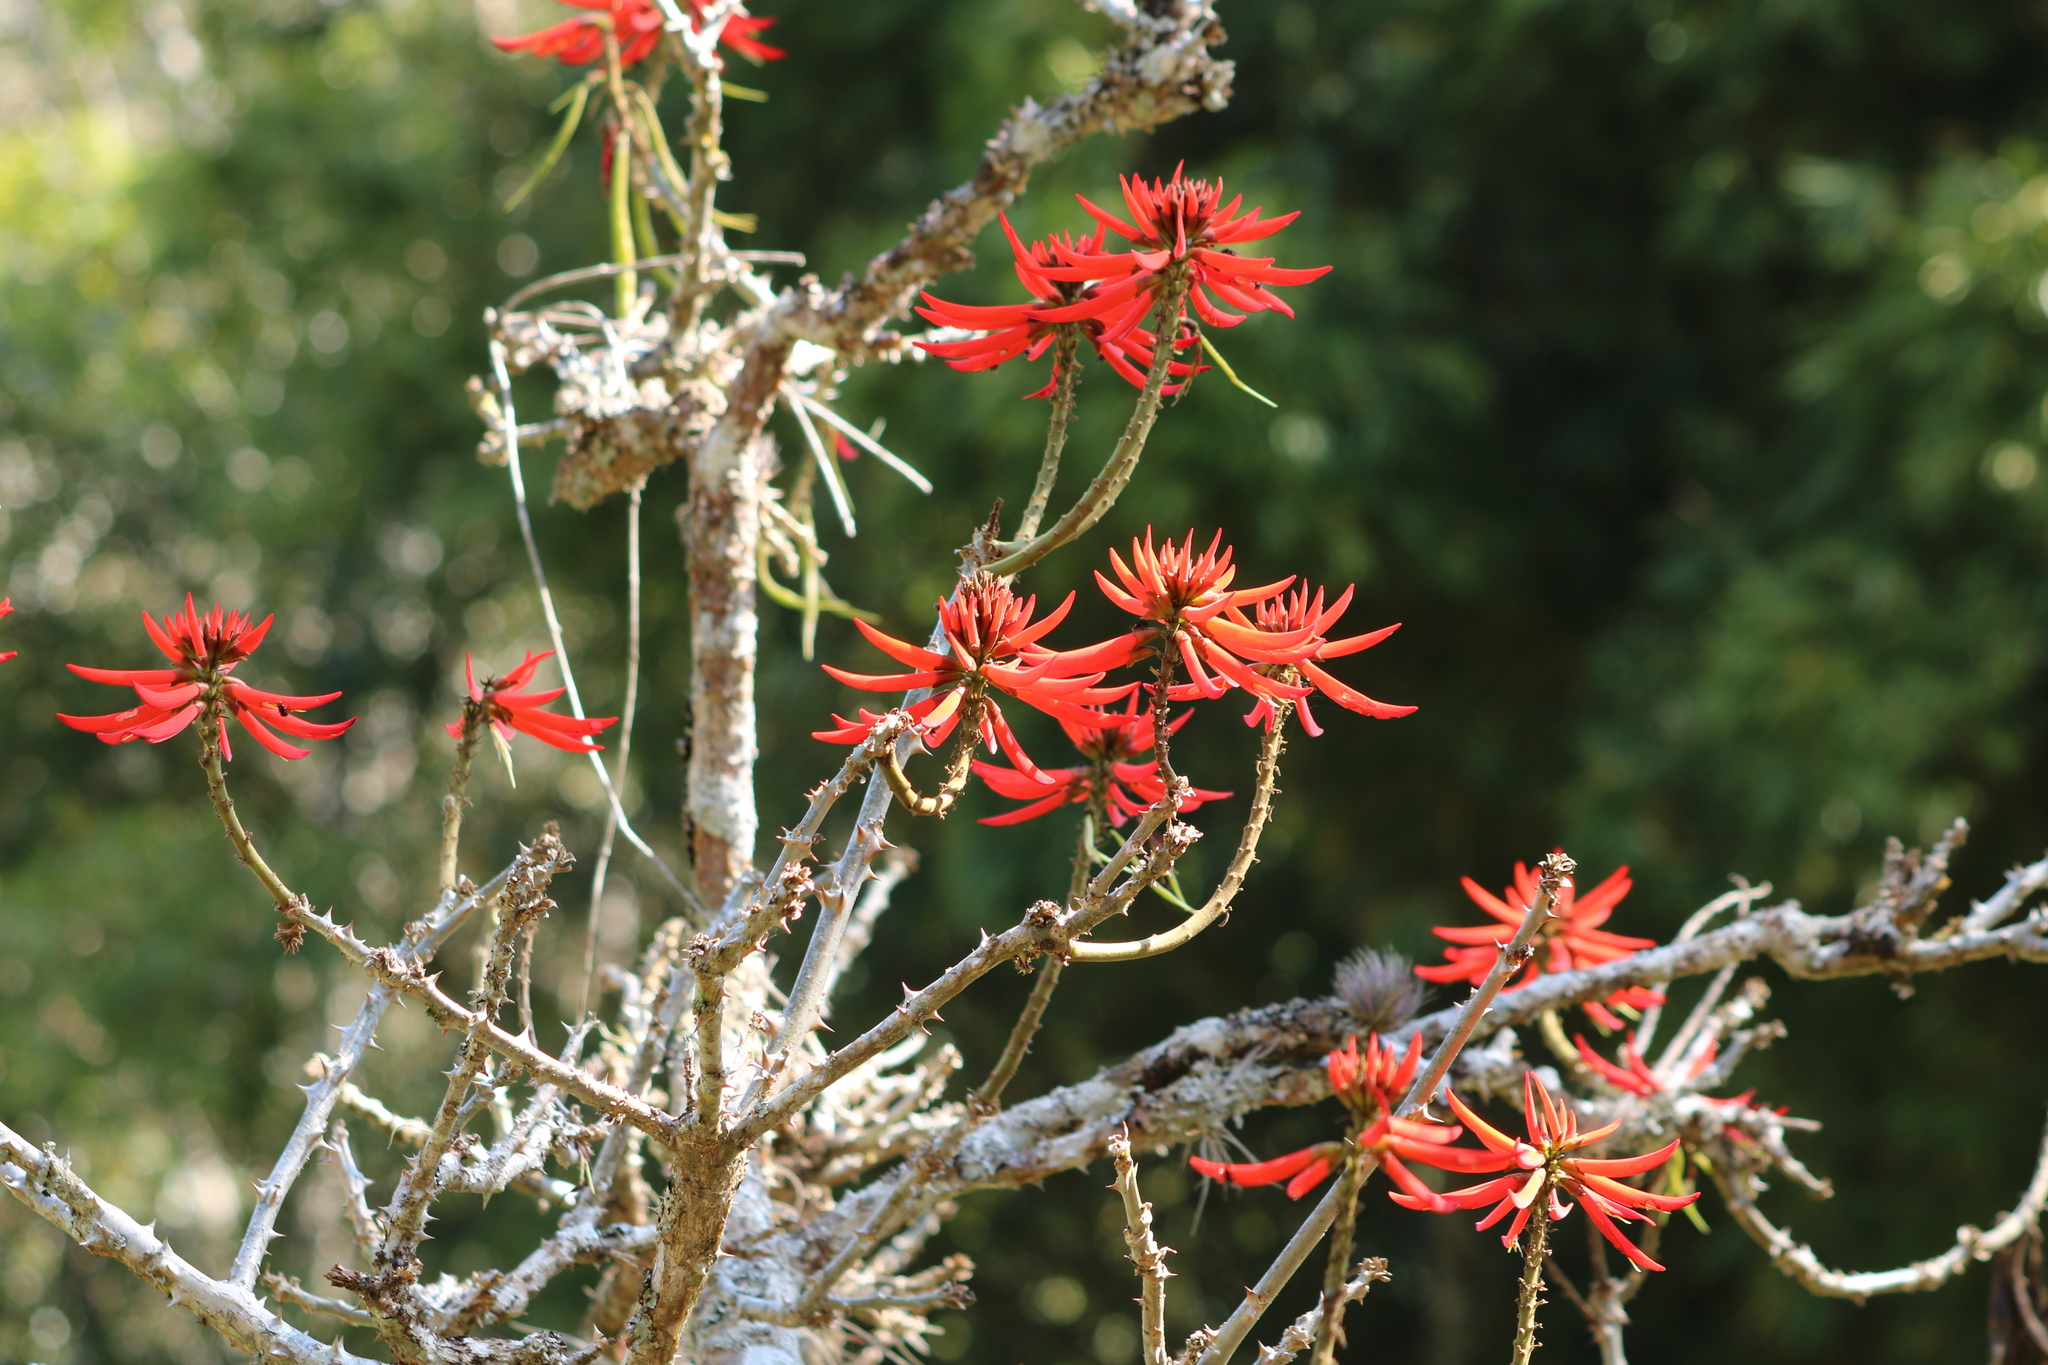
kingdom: Plantae
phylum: Tracheophyta
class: Magnoliopsida
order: Fabales
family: Fabaceae
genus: Erythrina
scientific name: Erythrina speciosa
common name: Coral tree
